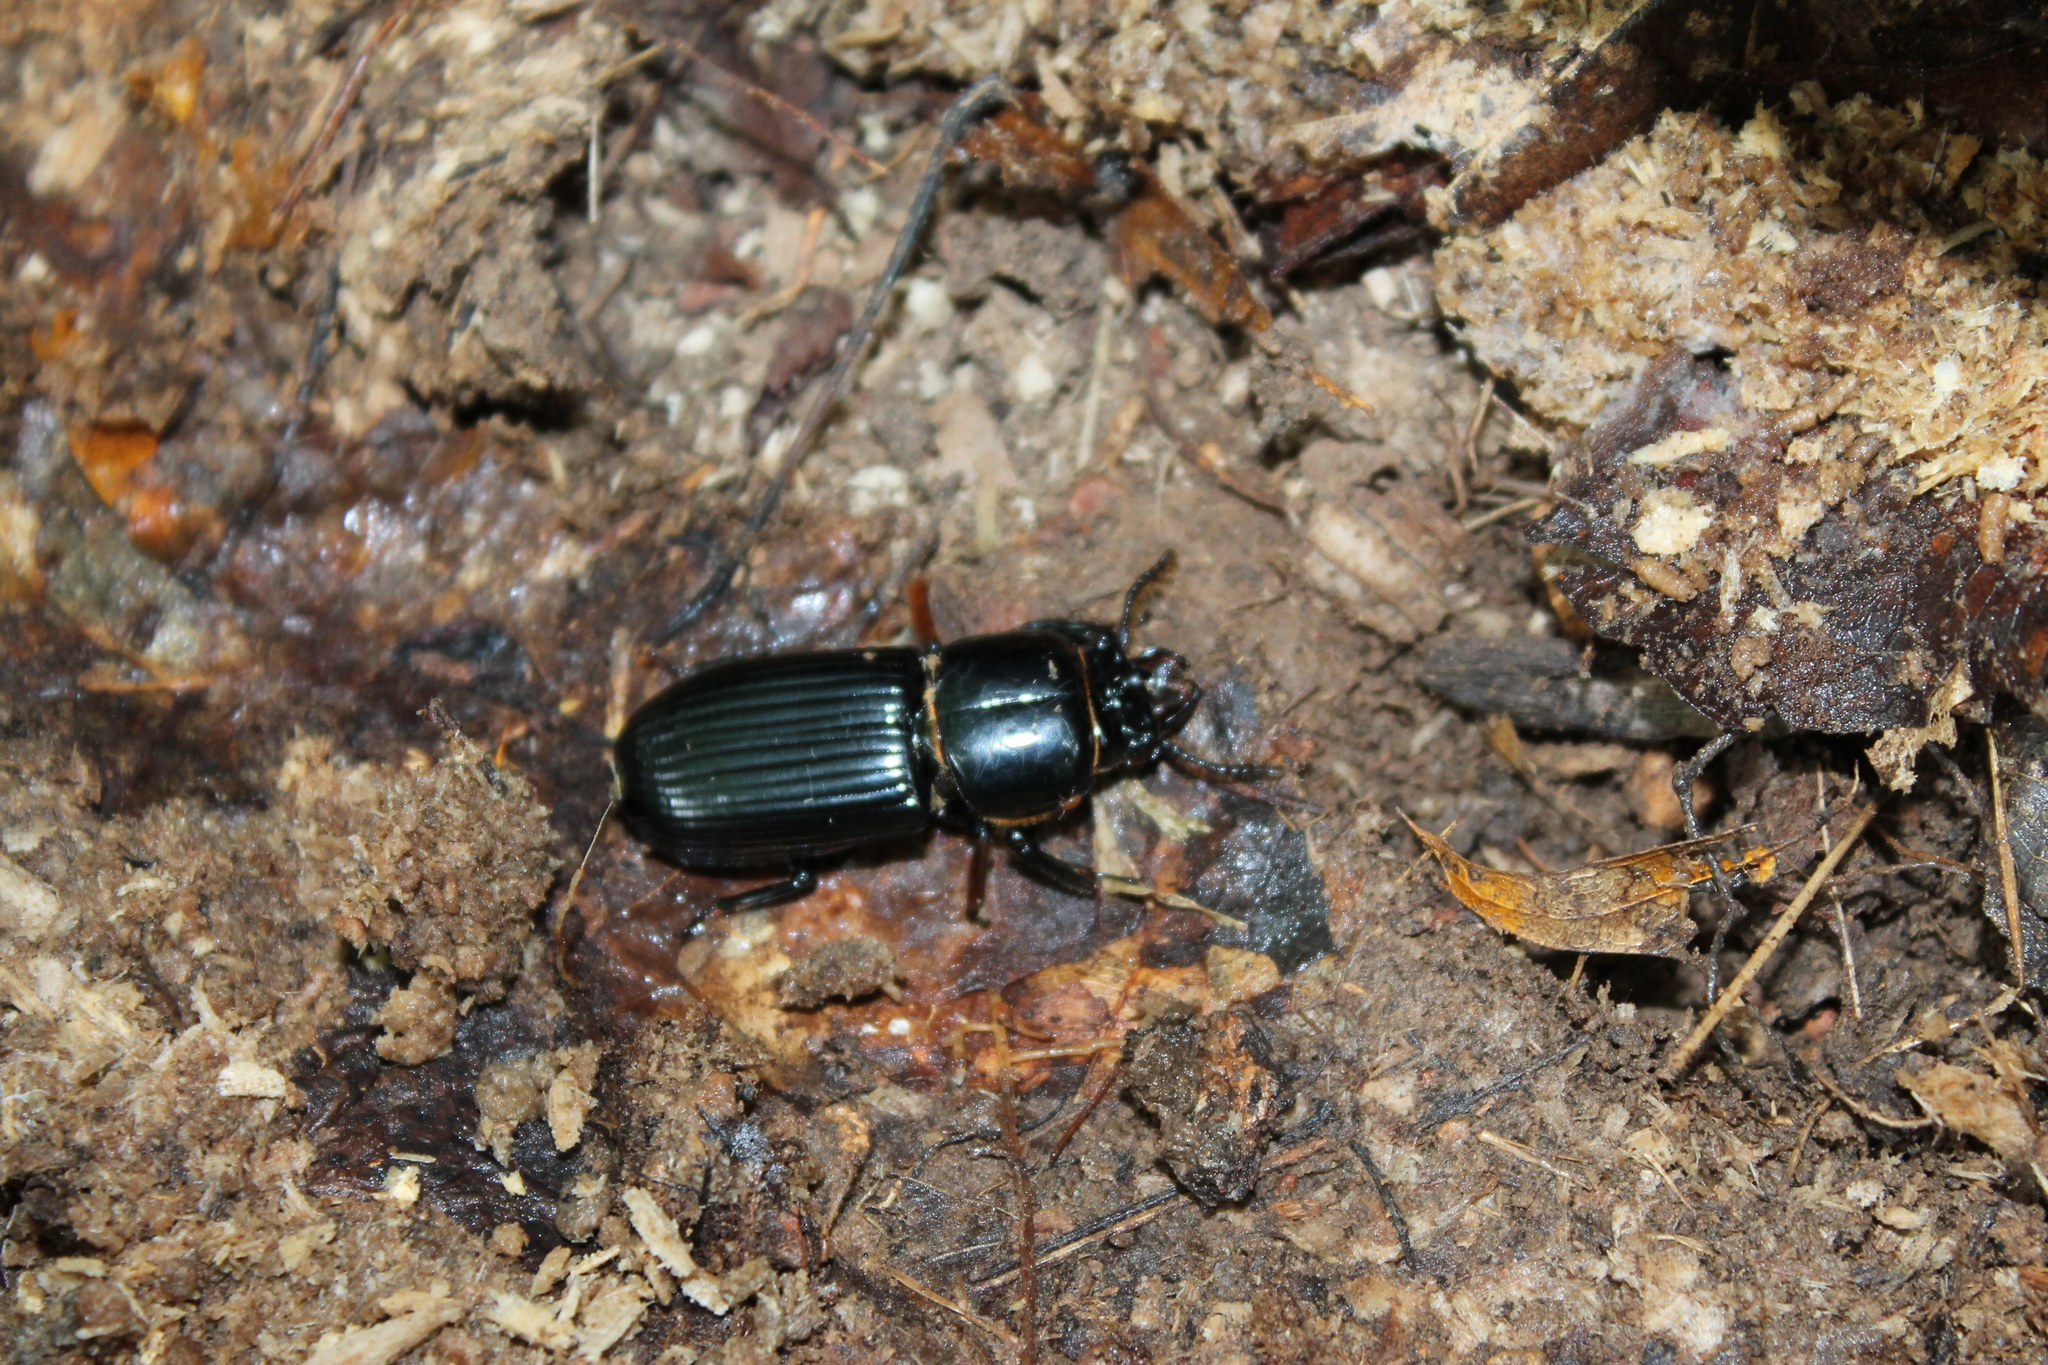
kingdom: Animalia
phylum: Arthropoda
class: Insecta
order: Coleoptera
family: Passalidae
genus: Odontotaenius
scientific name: Odontotaenius disjunctus
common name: Patent leather beetle
